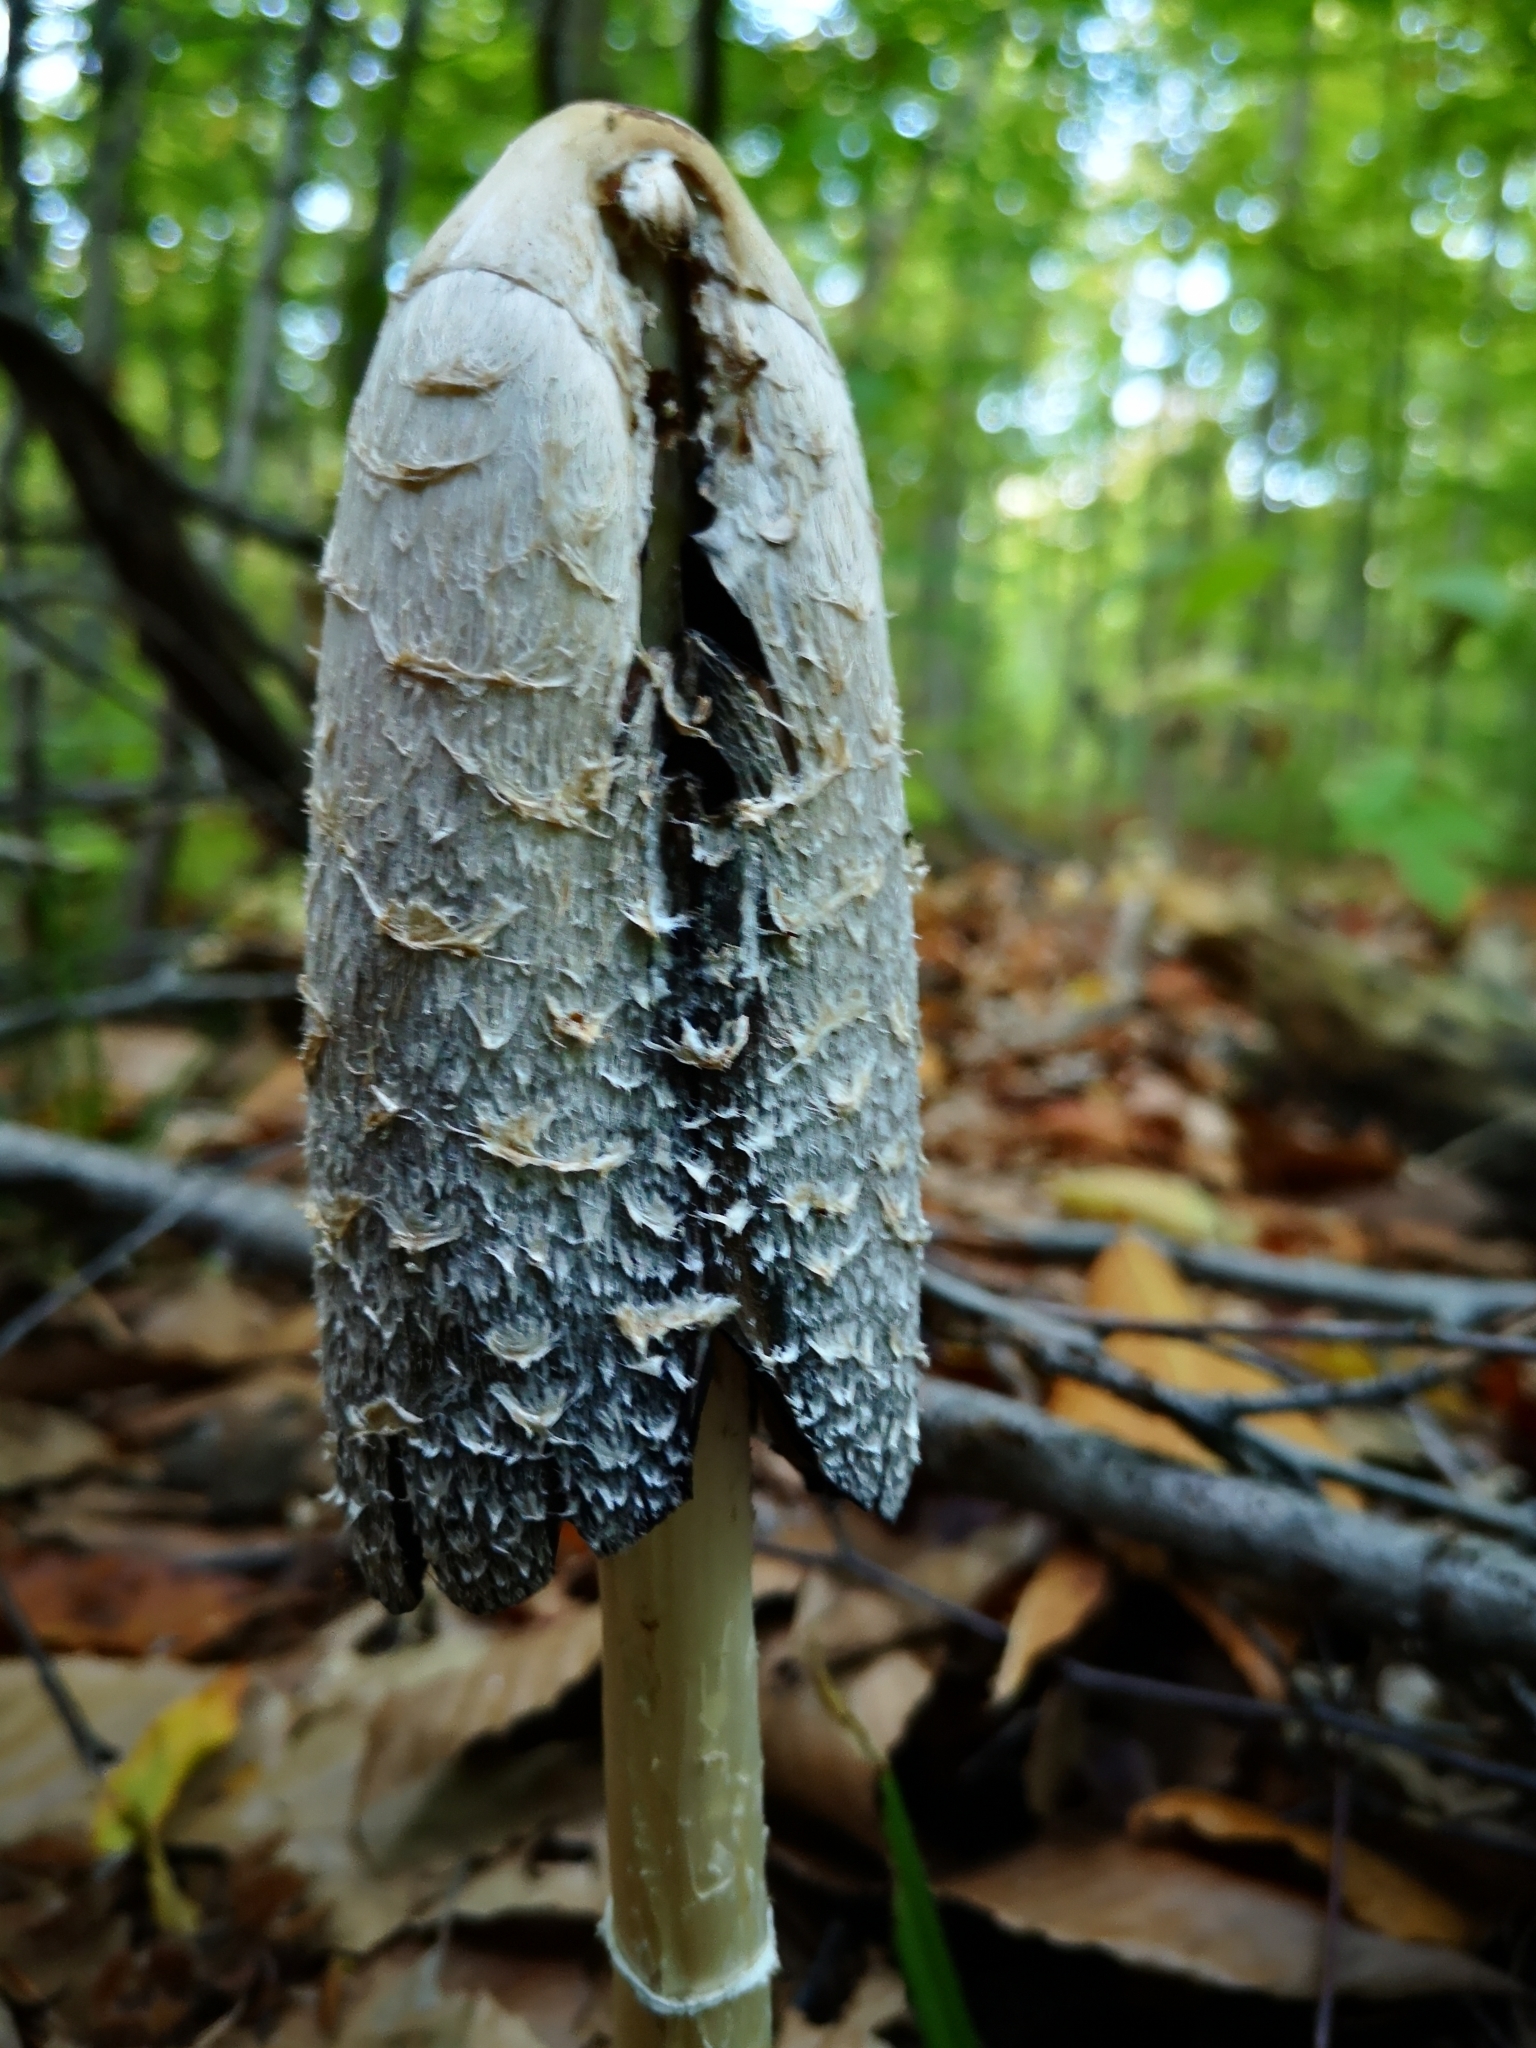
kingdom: Fungi
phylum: Basidiomycota
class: Agaricomycetes
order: Agaricales
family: Agaricaceae
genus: Coprinus
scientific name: Coprinus comatus
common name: Lawyer's wig
